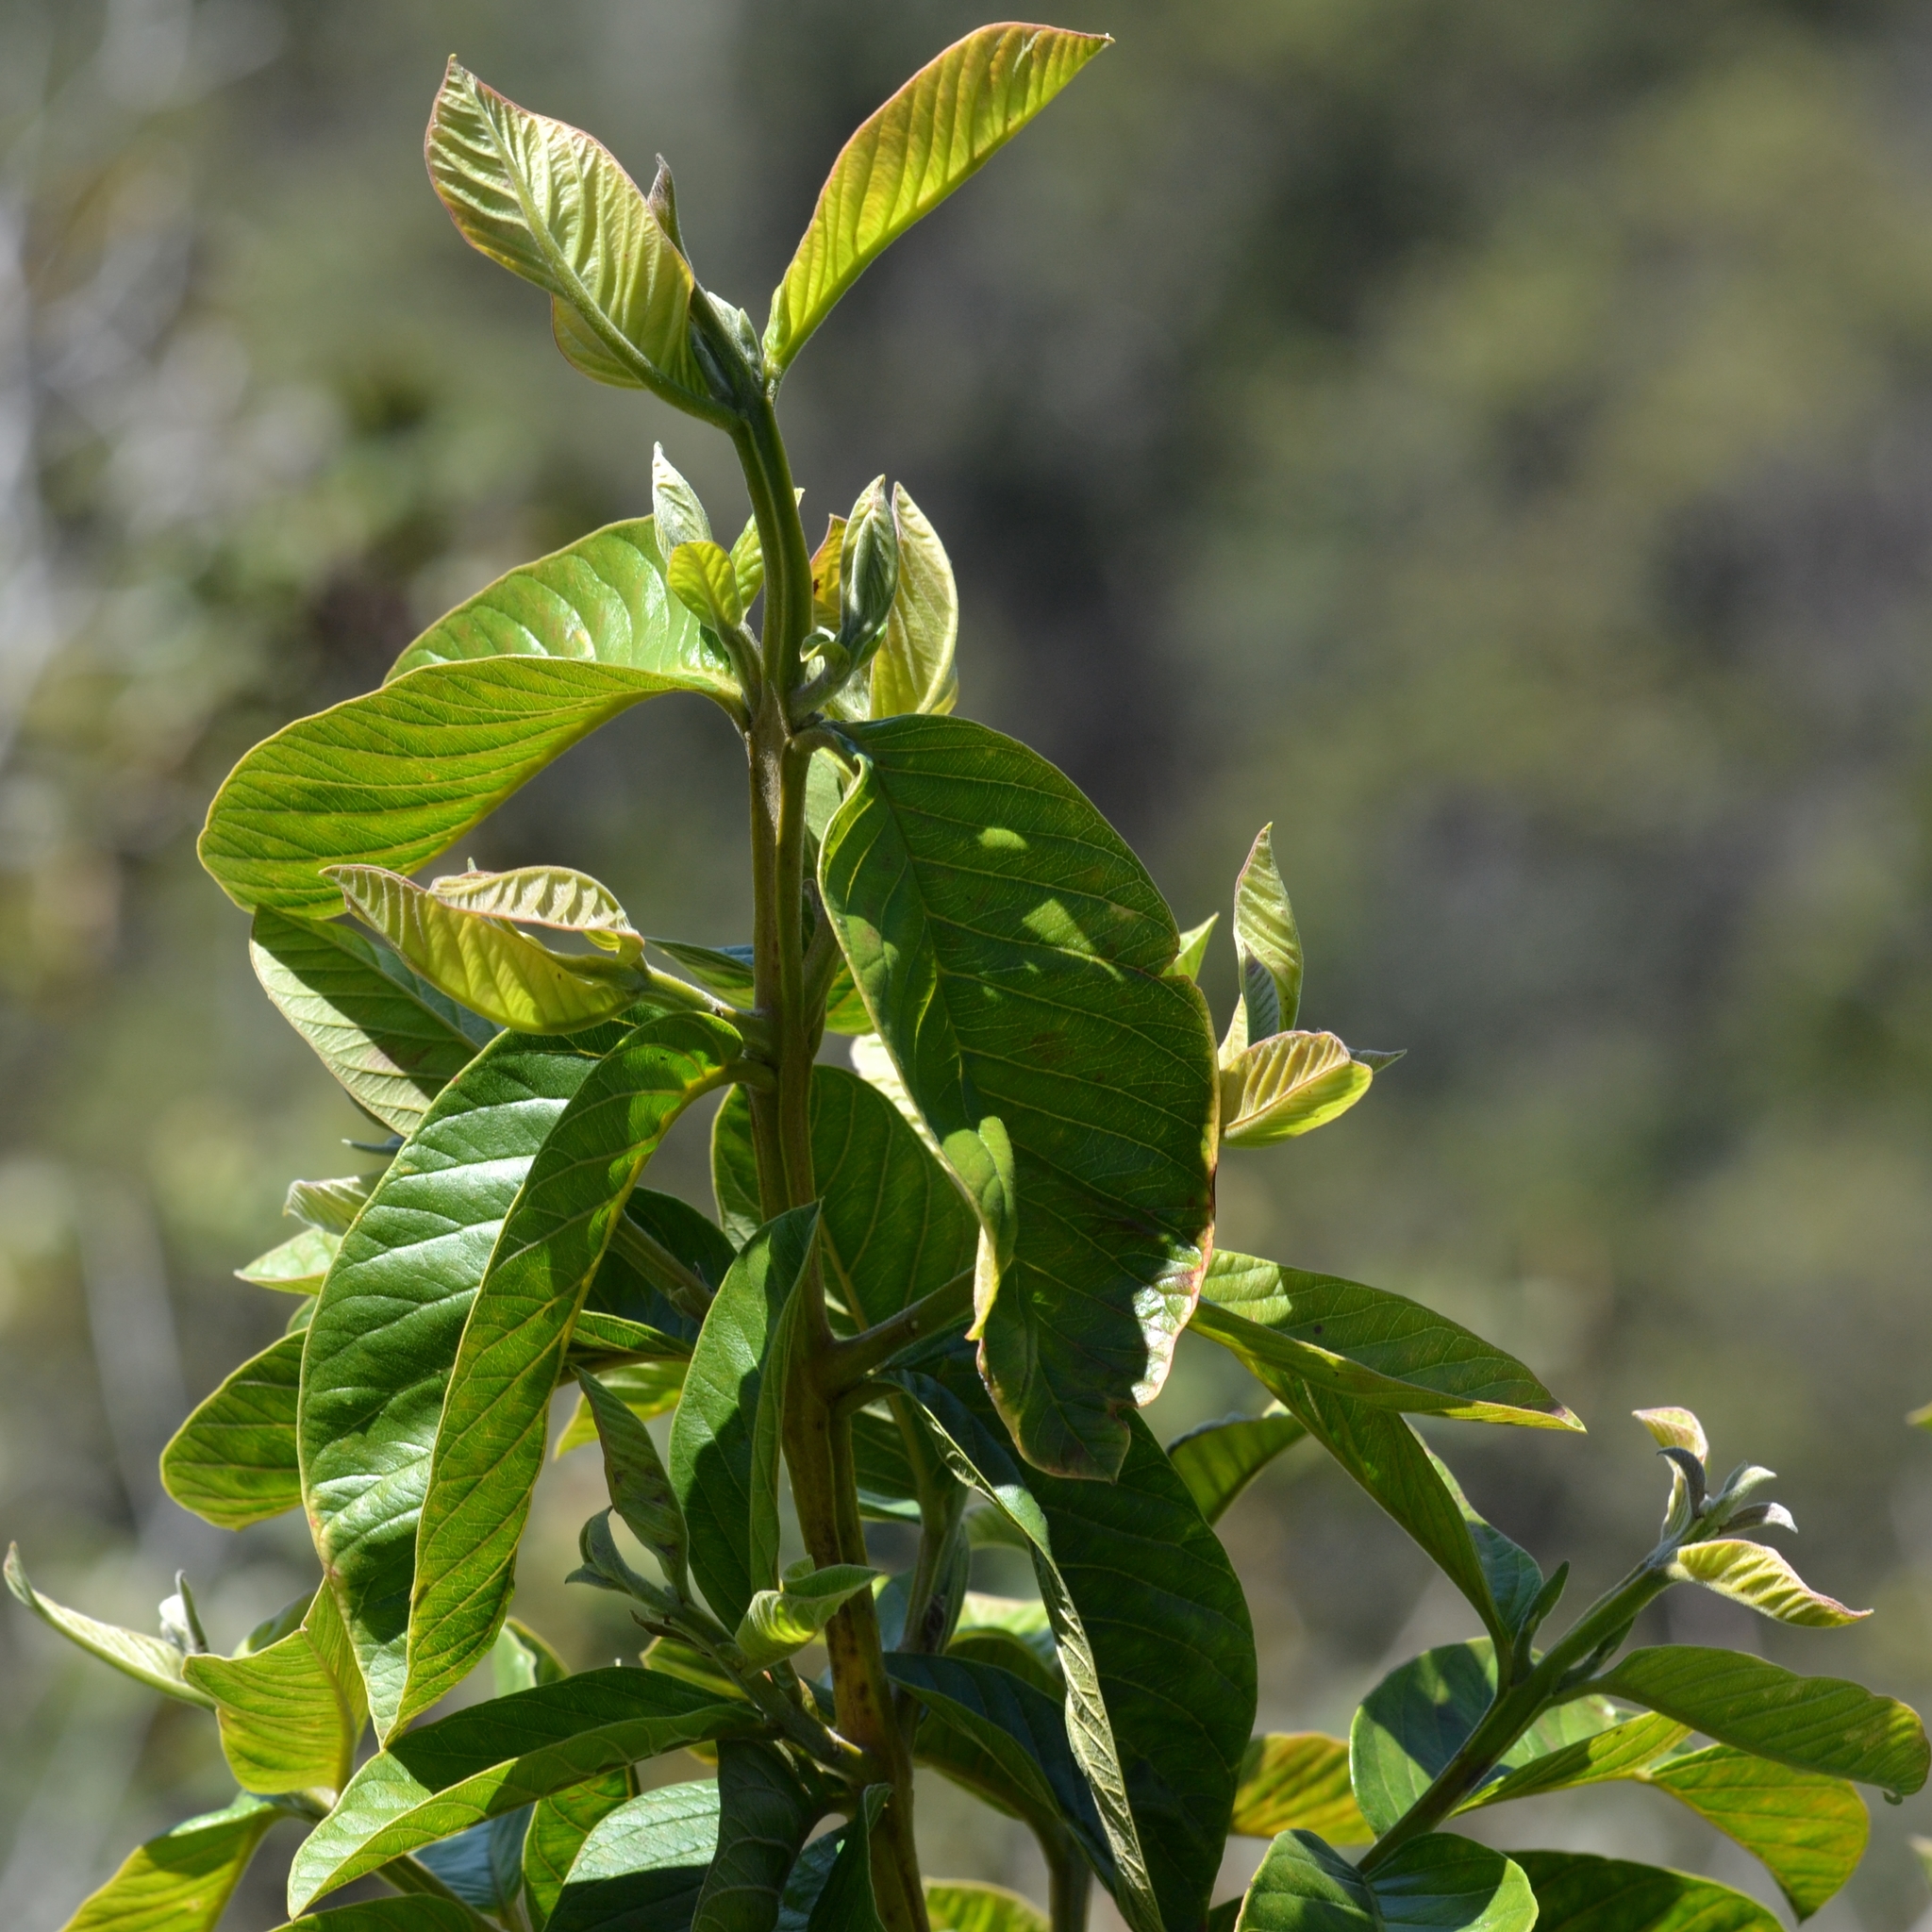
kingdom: Plantae
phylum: Tracheophyta
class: Magnoliopsida
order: Myrtales
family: Myrtaceae
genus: Psidium
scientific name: Psidium guajava
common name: Guava
